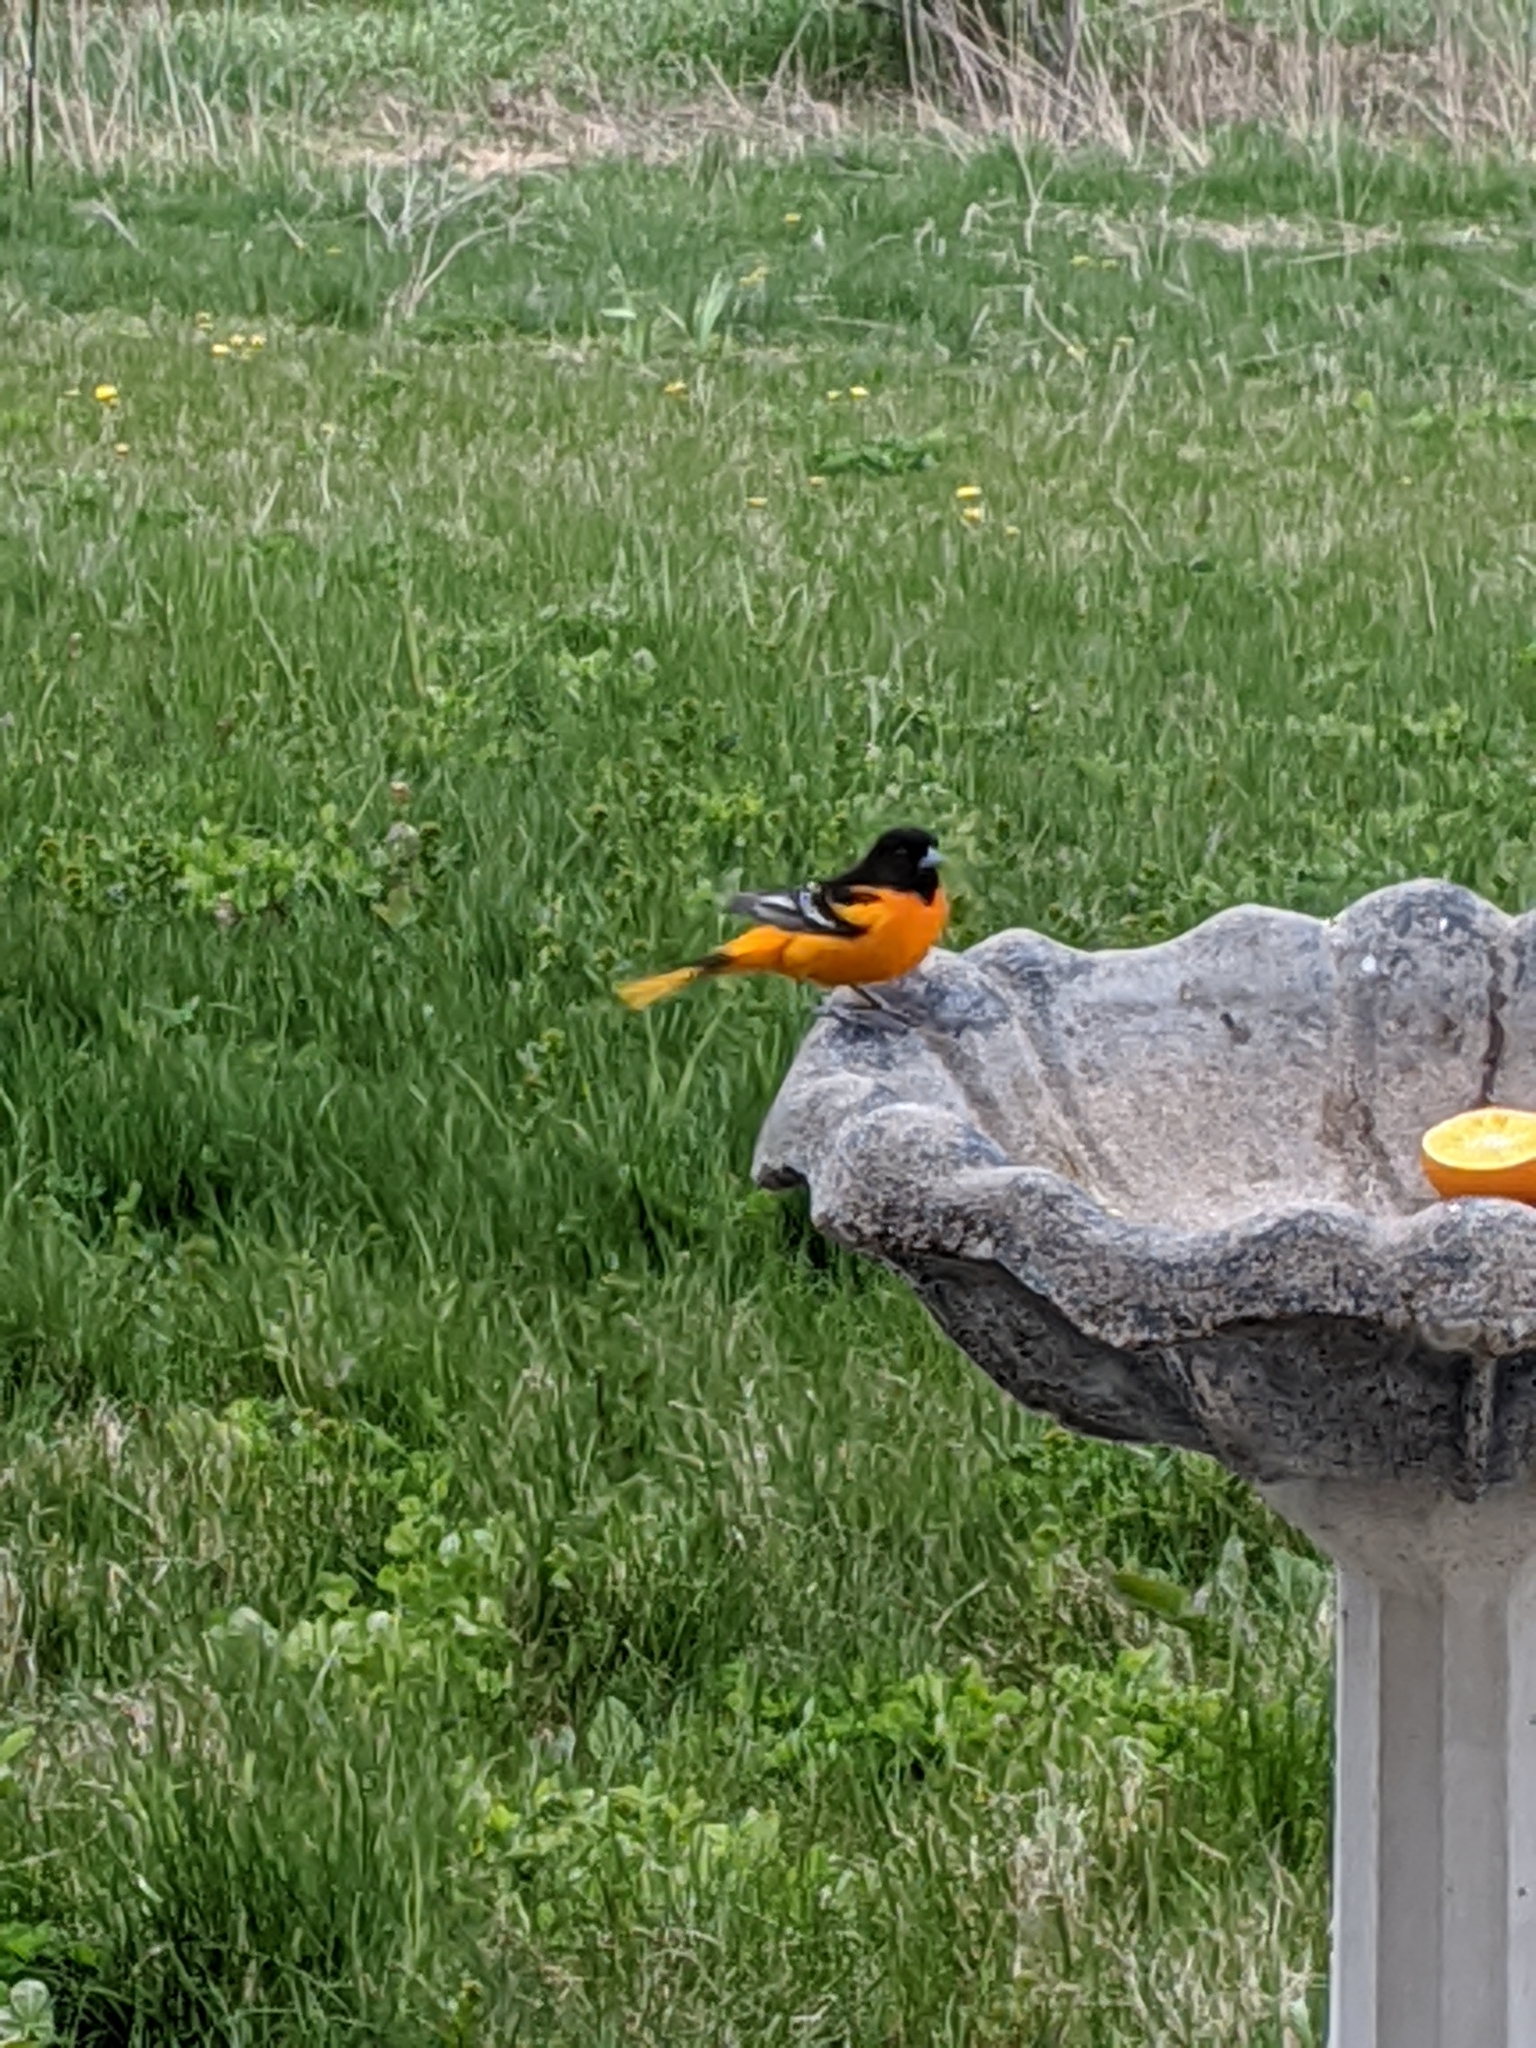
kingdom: Animalia
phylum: Chordata
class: Aves
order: Passeriformes
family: Icteridae
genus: Icterus
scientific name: Icterus galbula
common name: Baltimore oriole
